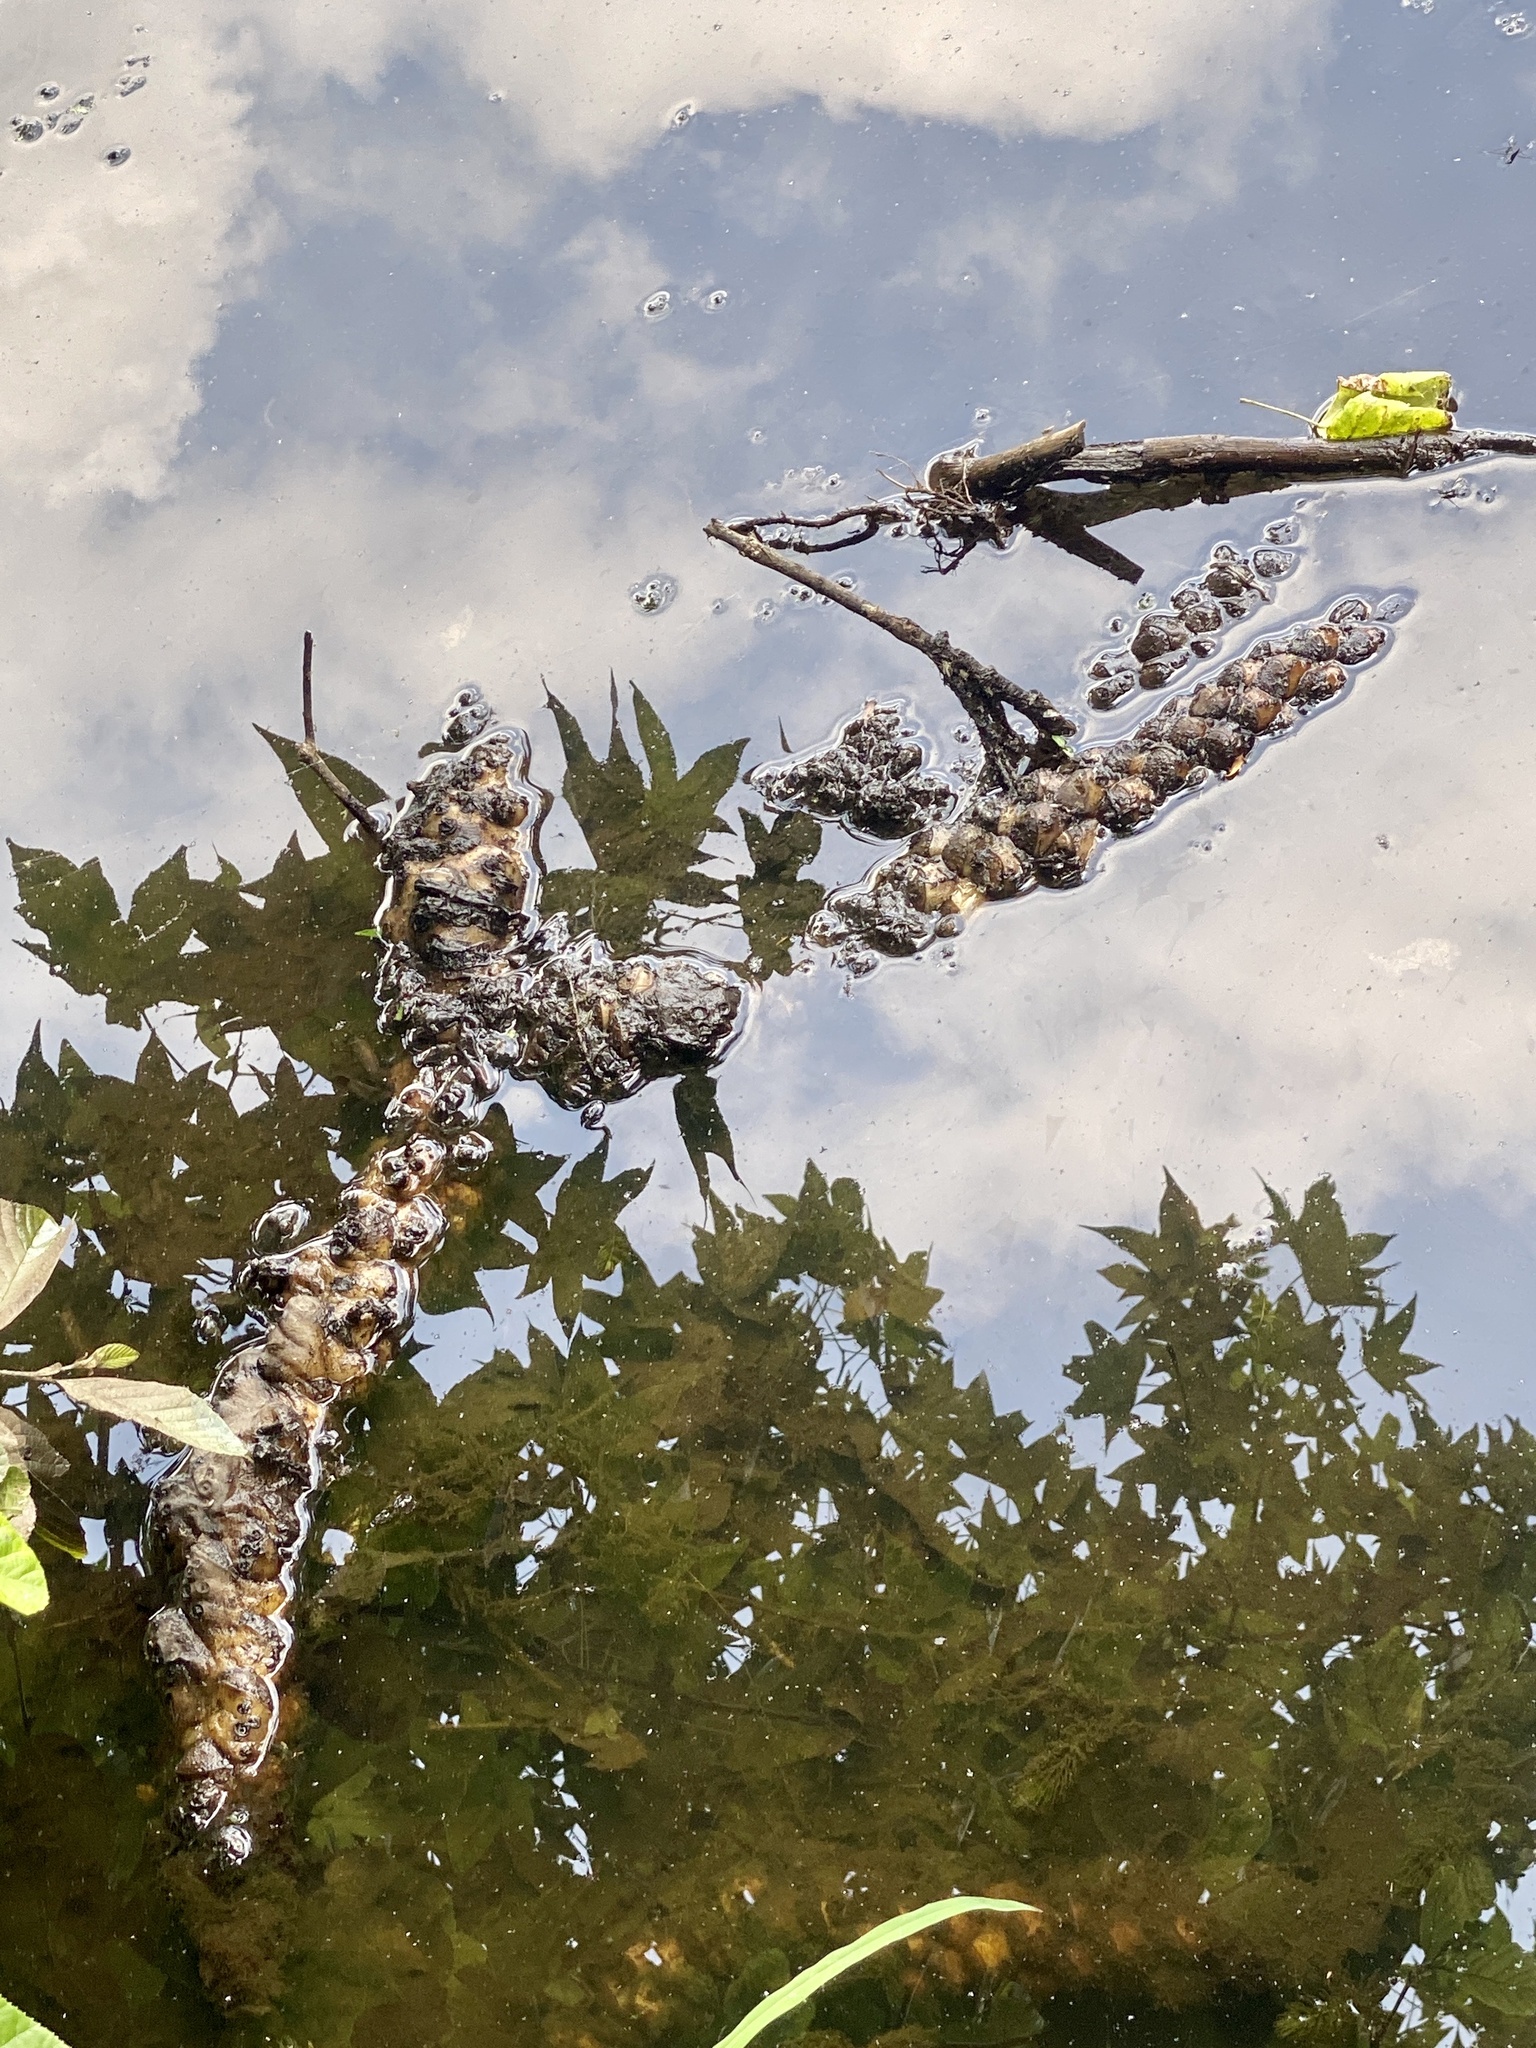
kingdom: Plantae
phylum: Tracheophyta
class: Magnoliopsida
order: Nymphaeales
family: Nymphaeaceae
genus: Nuphar
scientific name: Nuphar advena
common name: Spatter-dock
